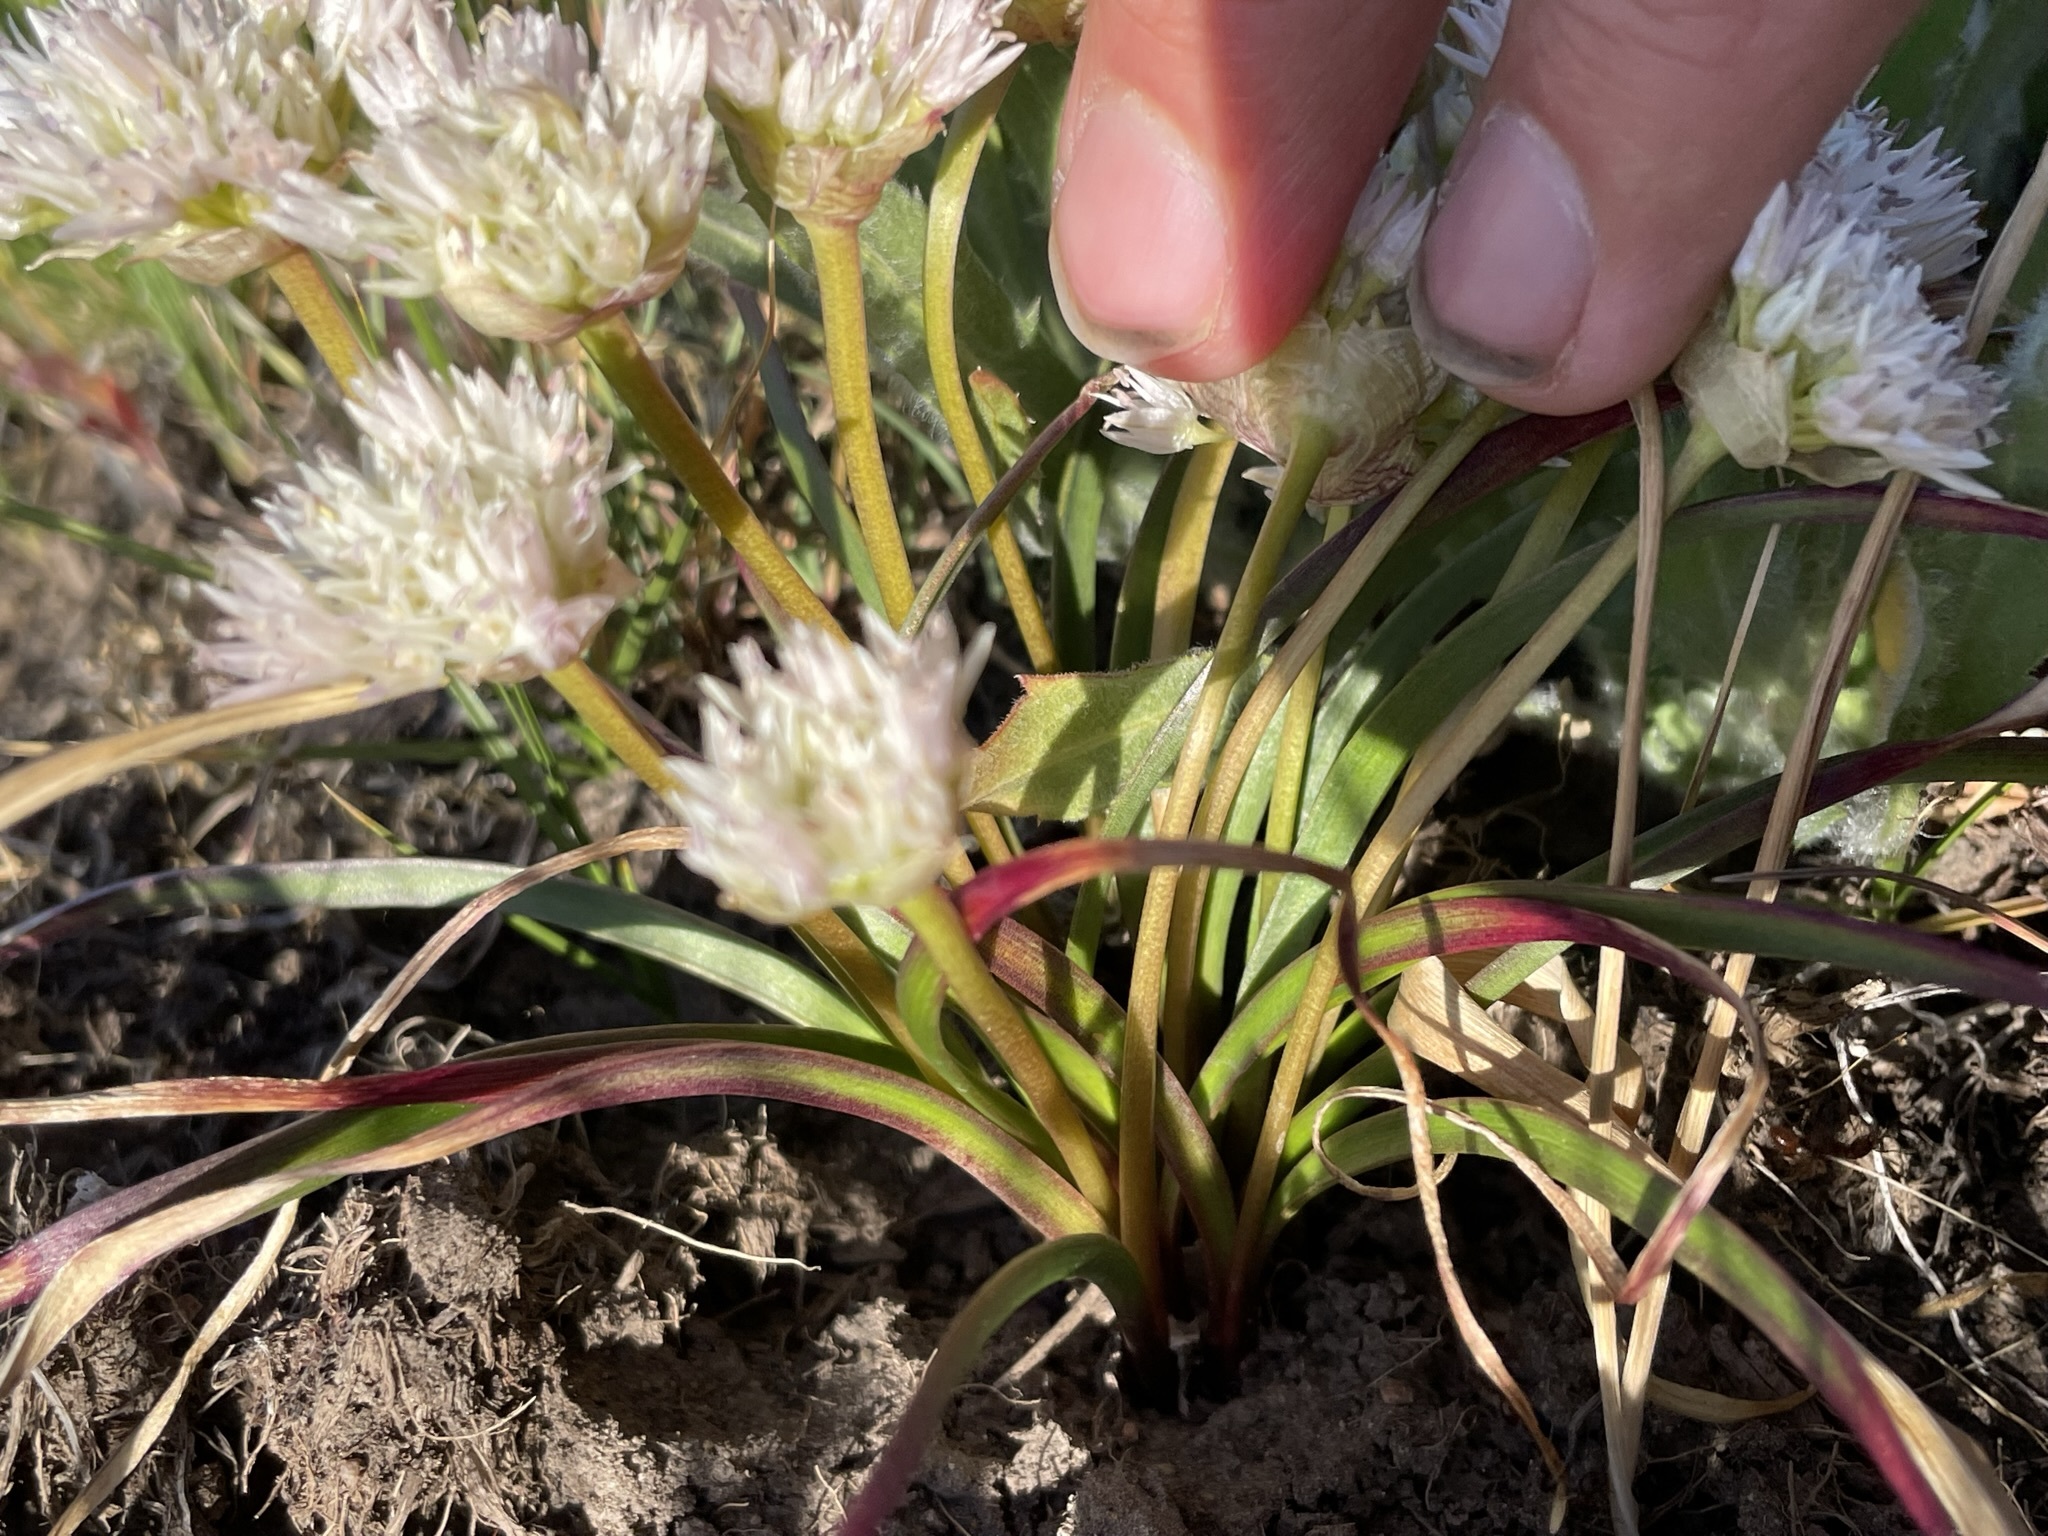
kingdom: Plantae
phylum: Tracheophyta
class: Liliopsida
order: Asparagales
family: Amaryllidaceae
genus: Allium
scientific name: Allium lemmonii
